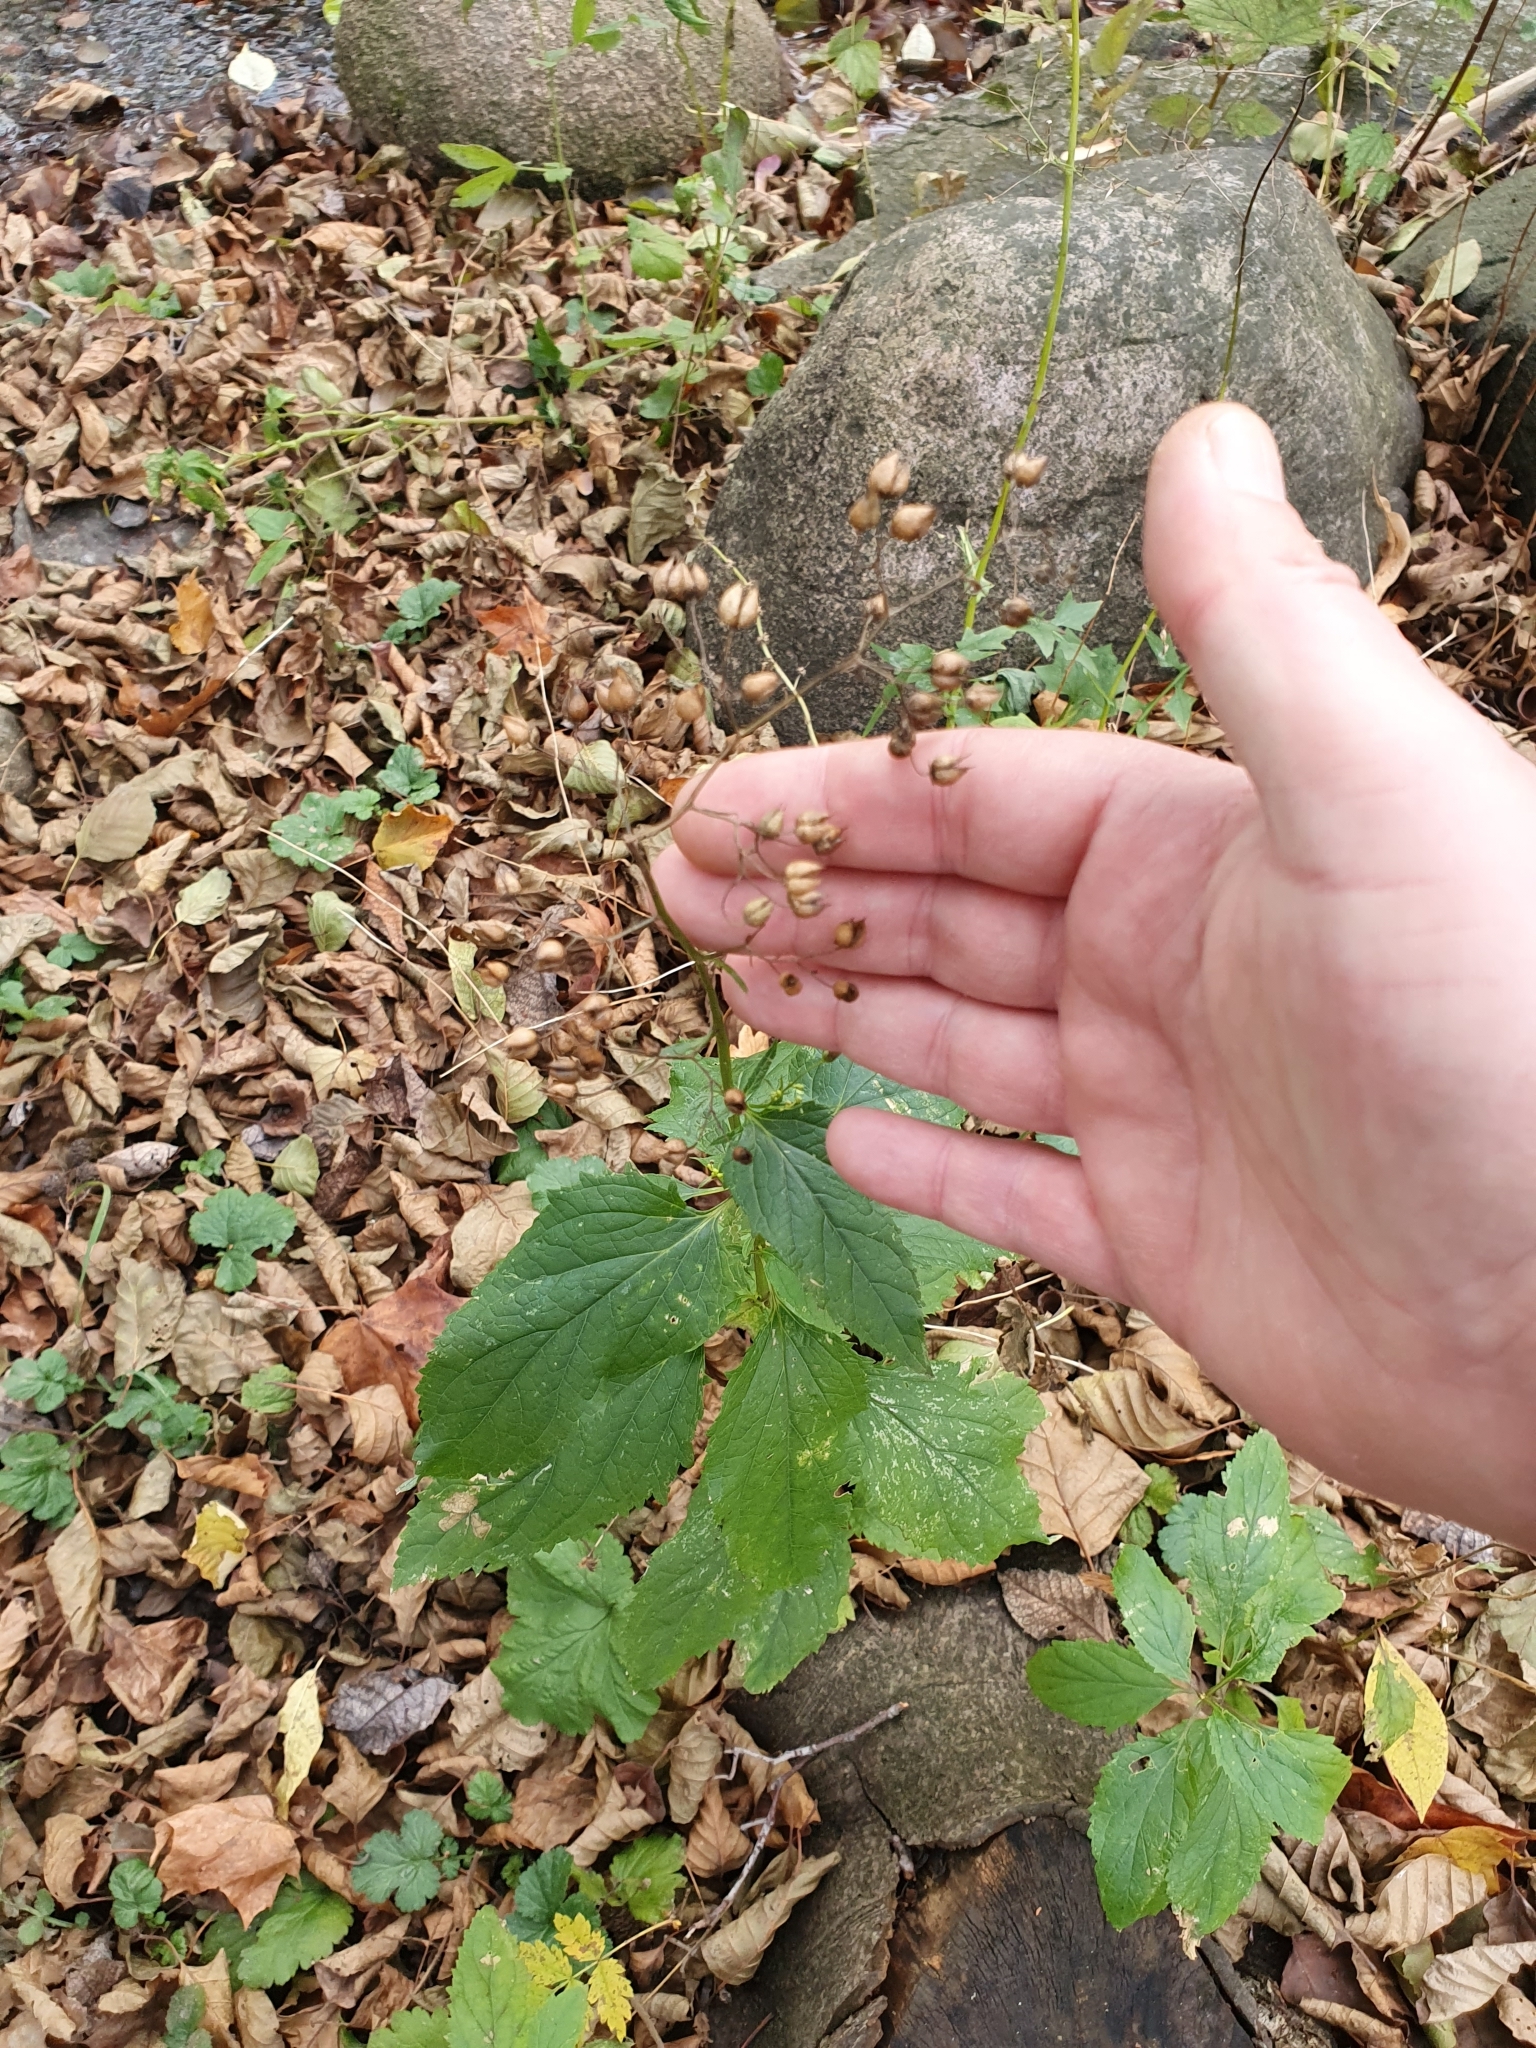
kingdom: Plantae
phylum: Tracheophyta
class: Magnoliopsida
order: Lamiales
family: Scrophulariaceae
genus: Scrophularia
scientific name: Scrophularia nodosa
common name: Common figwort
